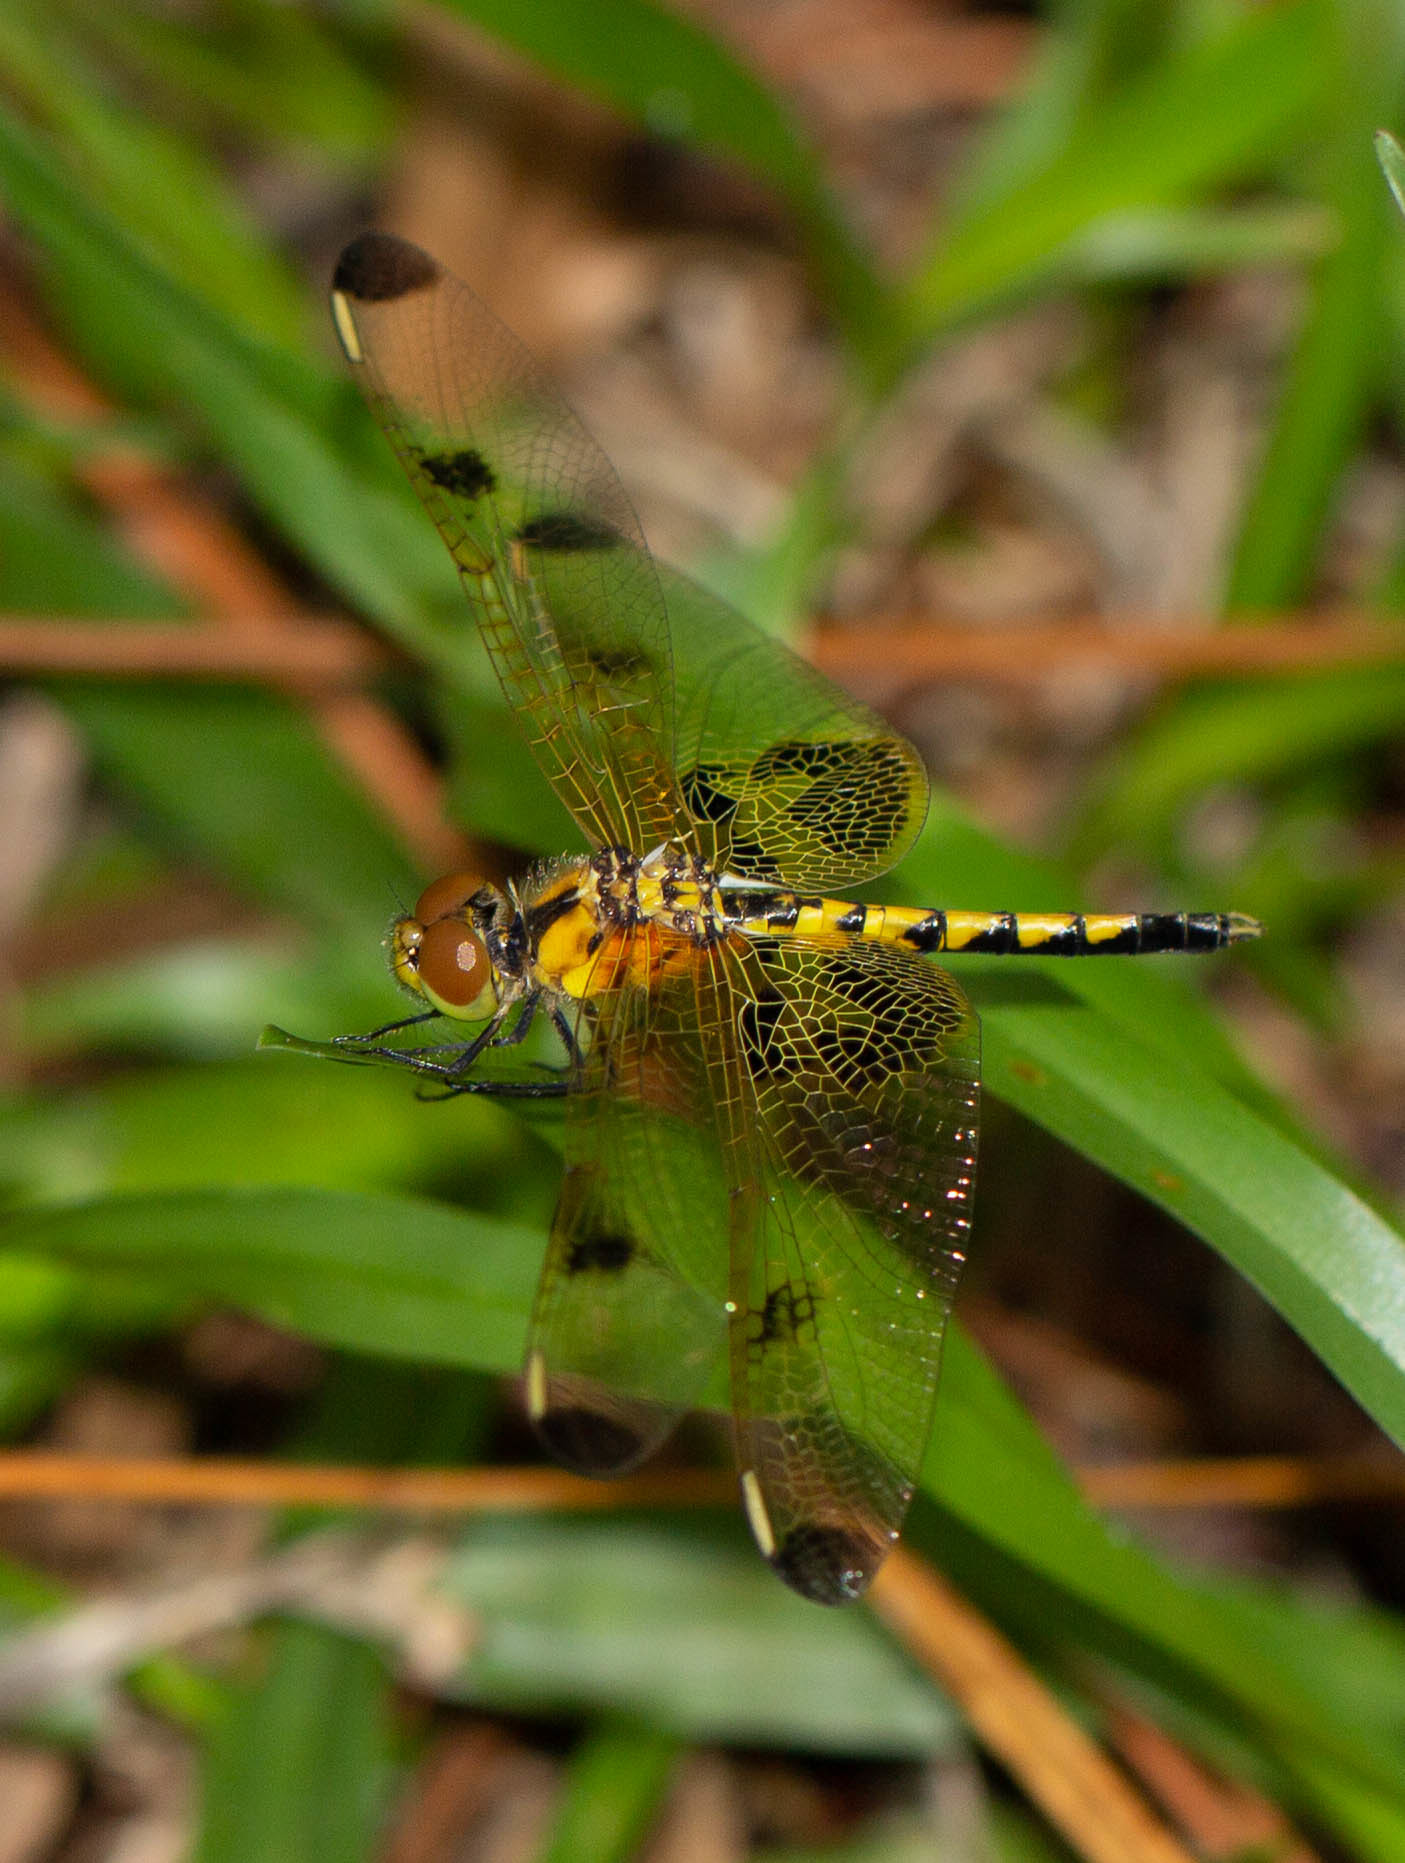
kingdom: Animalia
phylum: Arthropoda
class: Insecta
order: Odonata
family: Libellulidae
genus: Celithemis
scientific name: Celithemis elisa
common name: Calico pennant
